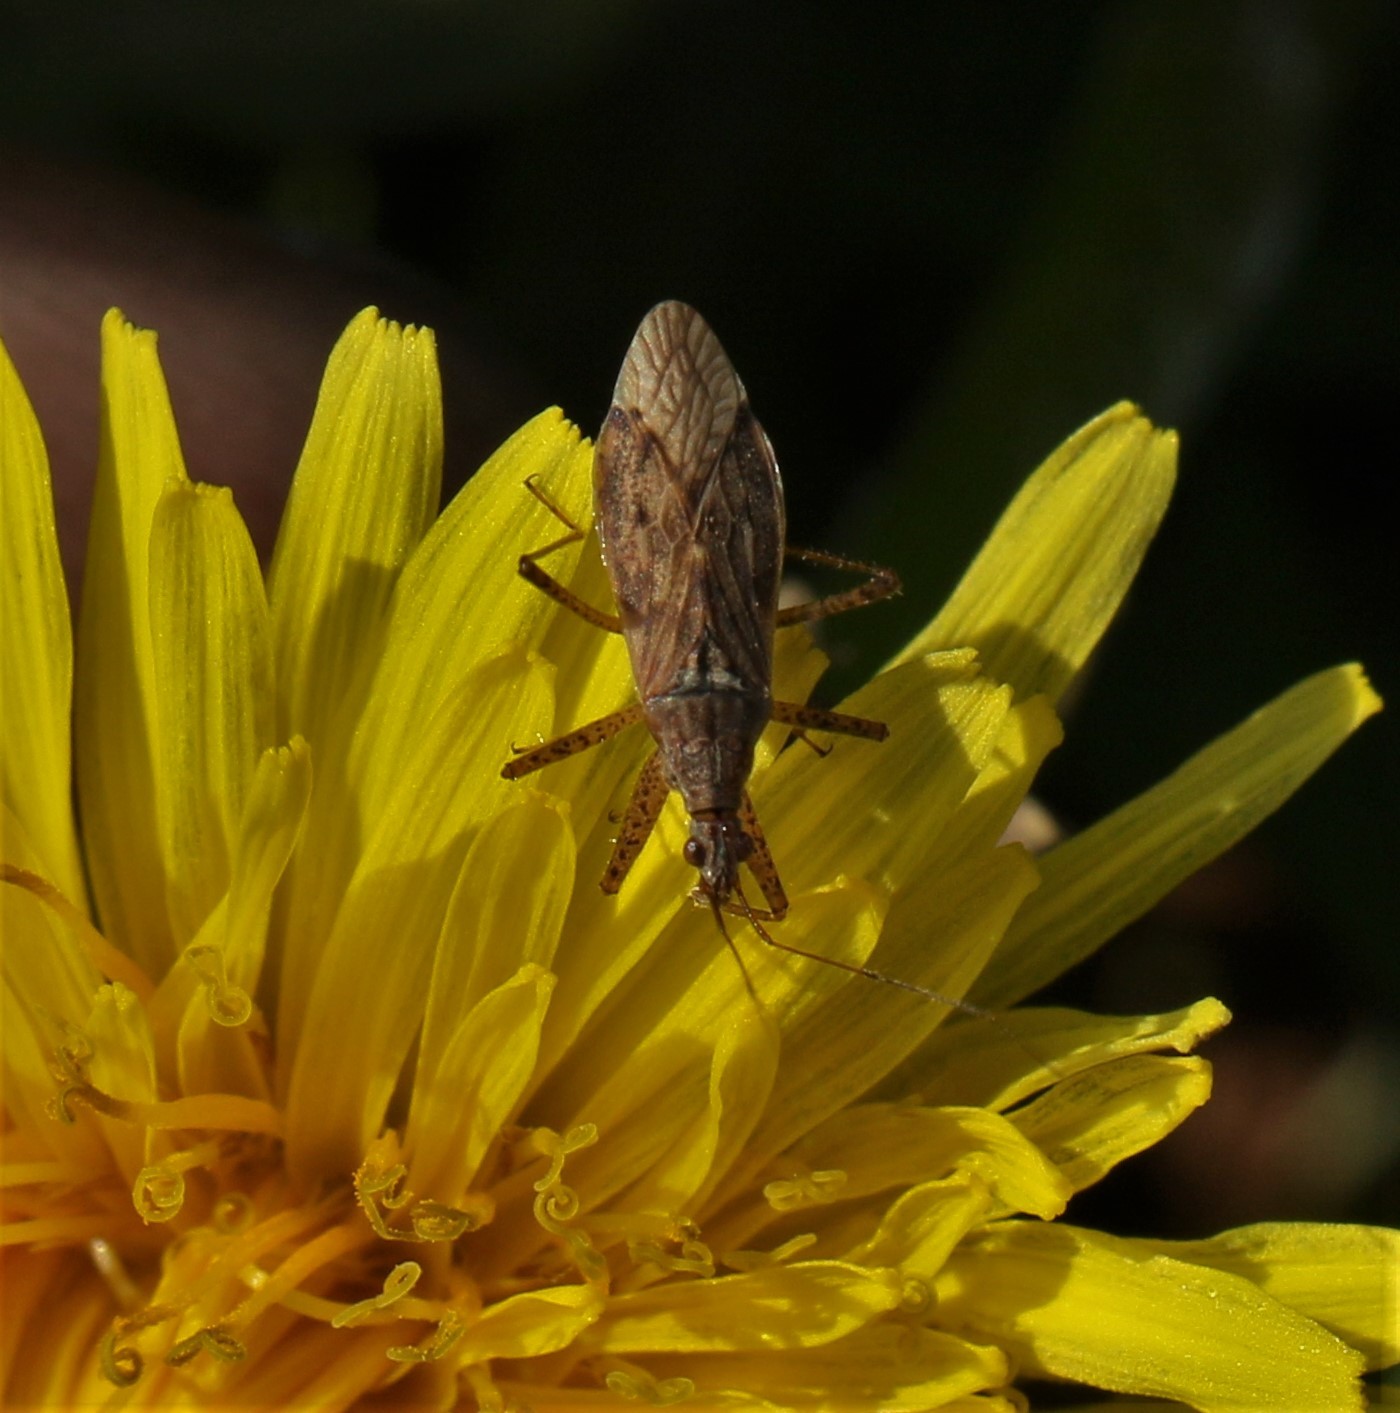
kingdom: Animalia
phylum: Arthropoda
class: Insecta
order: Hemiptera
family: Nabidae
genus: Nabis
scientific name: Nabis roseipennis
